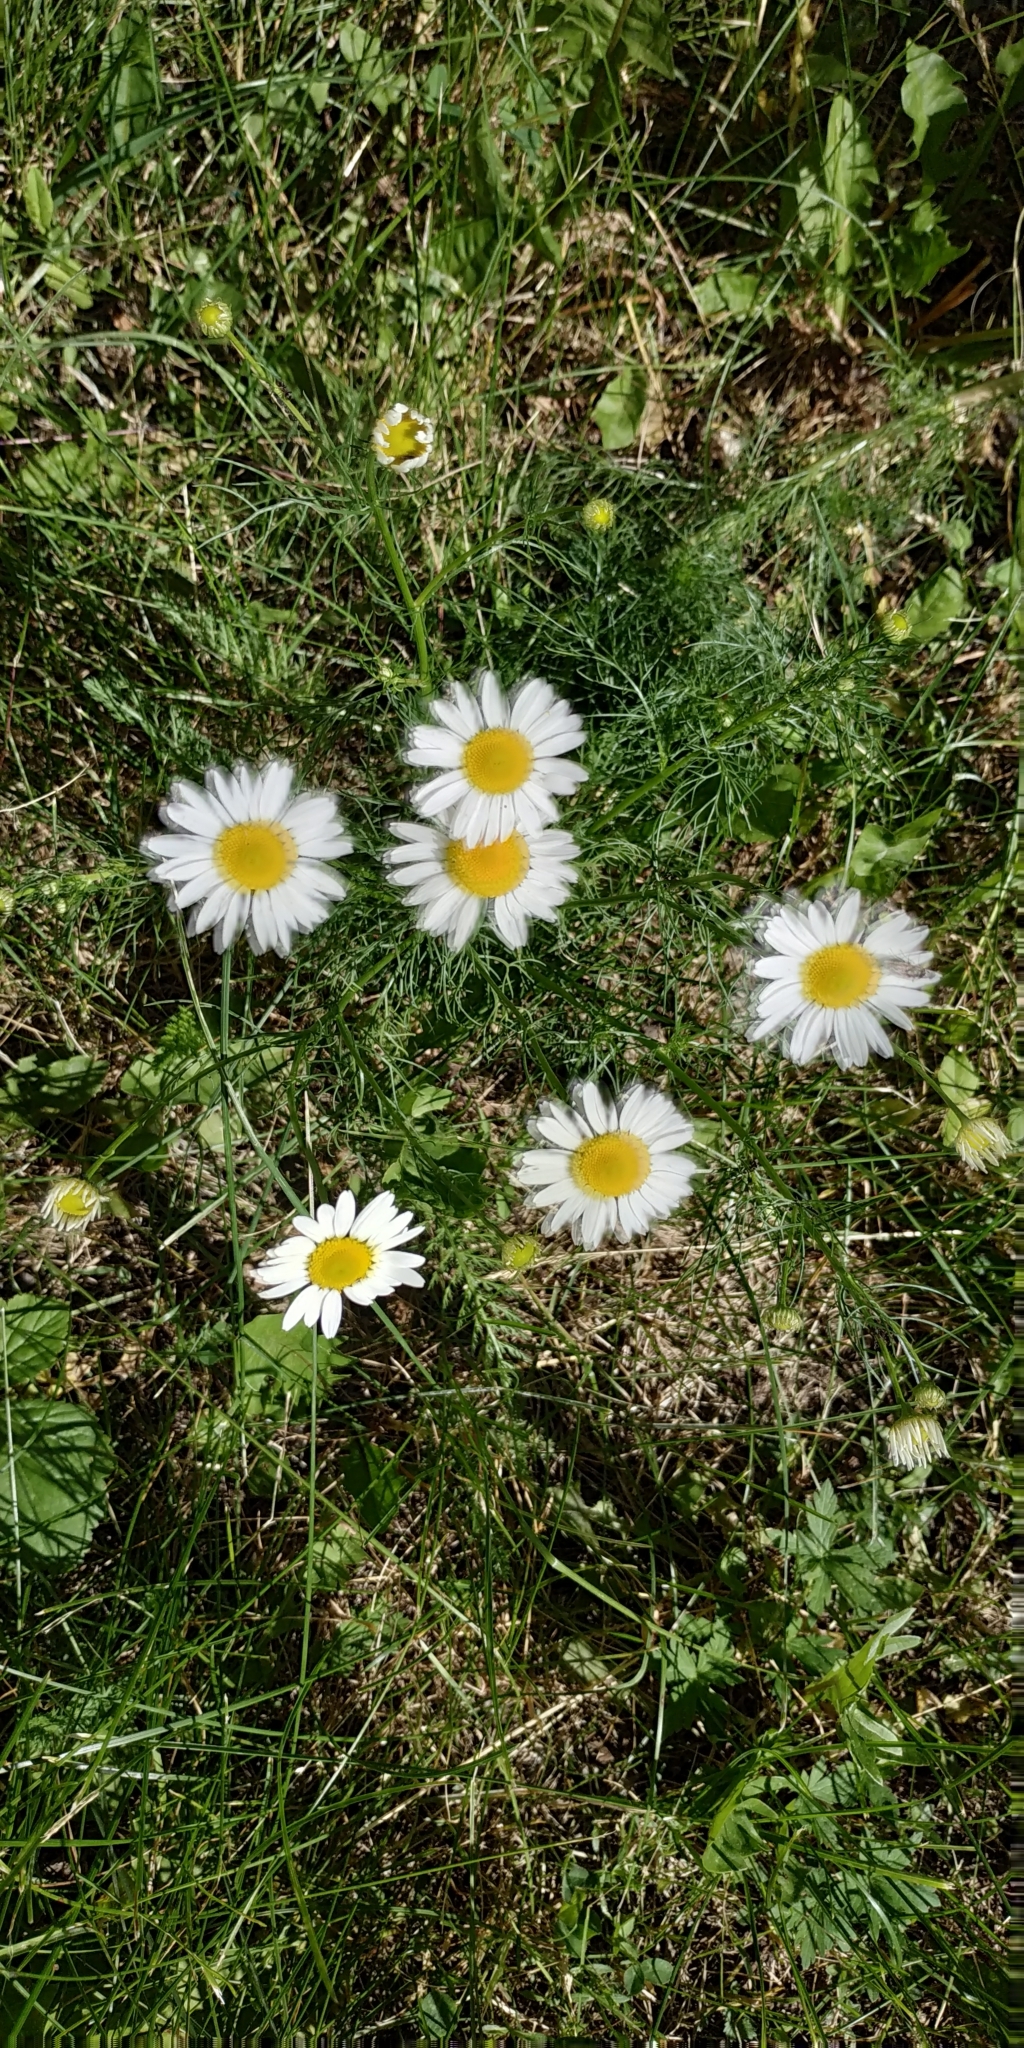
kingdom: Plantae
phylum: Tracheophyta
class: Magnoliopsida
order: Asterales
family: Asteraceae
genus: Tripleurospermum
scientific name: Tripleurospermum inodorum
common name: Scentless mayweed
